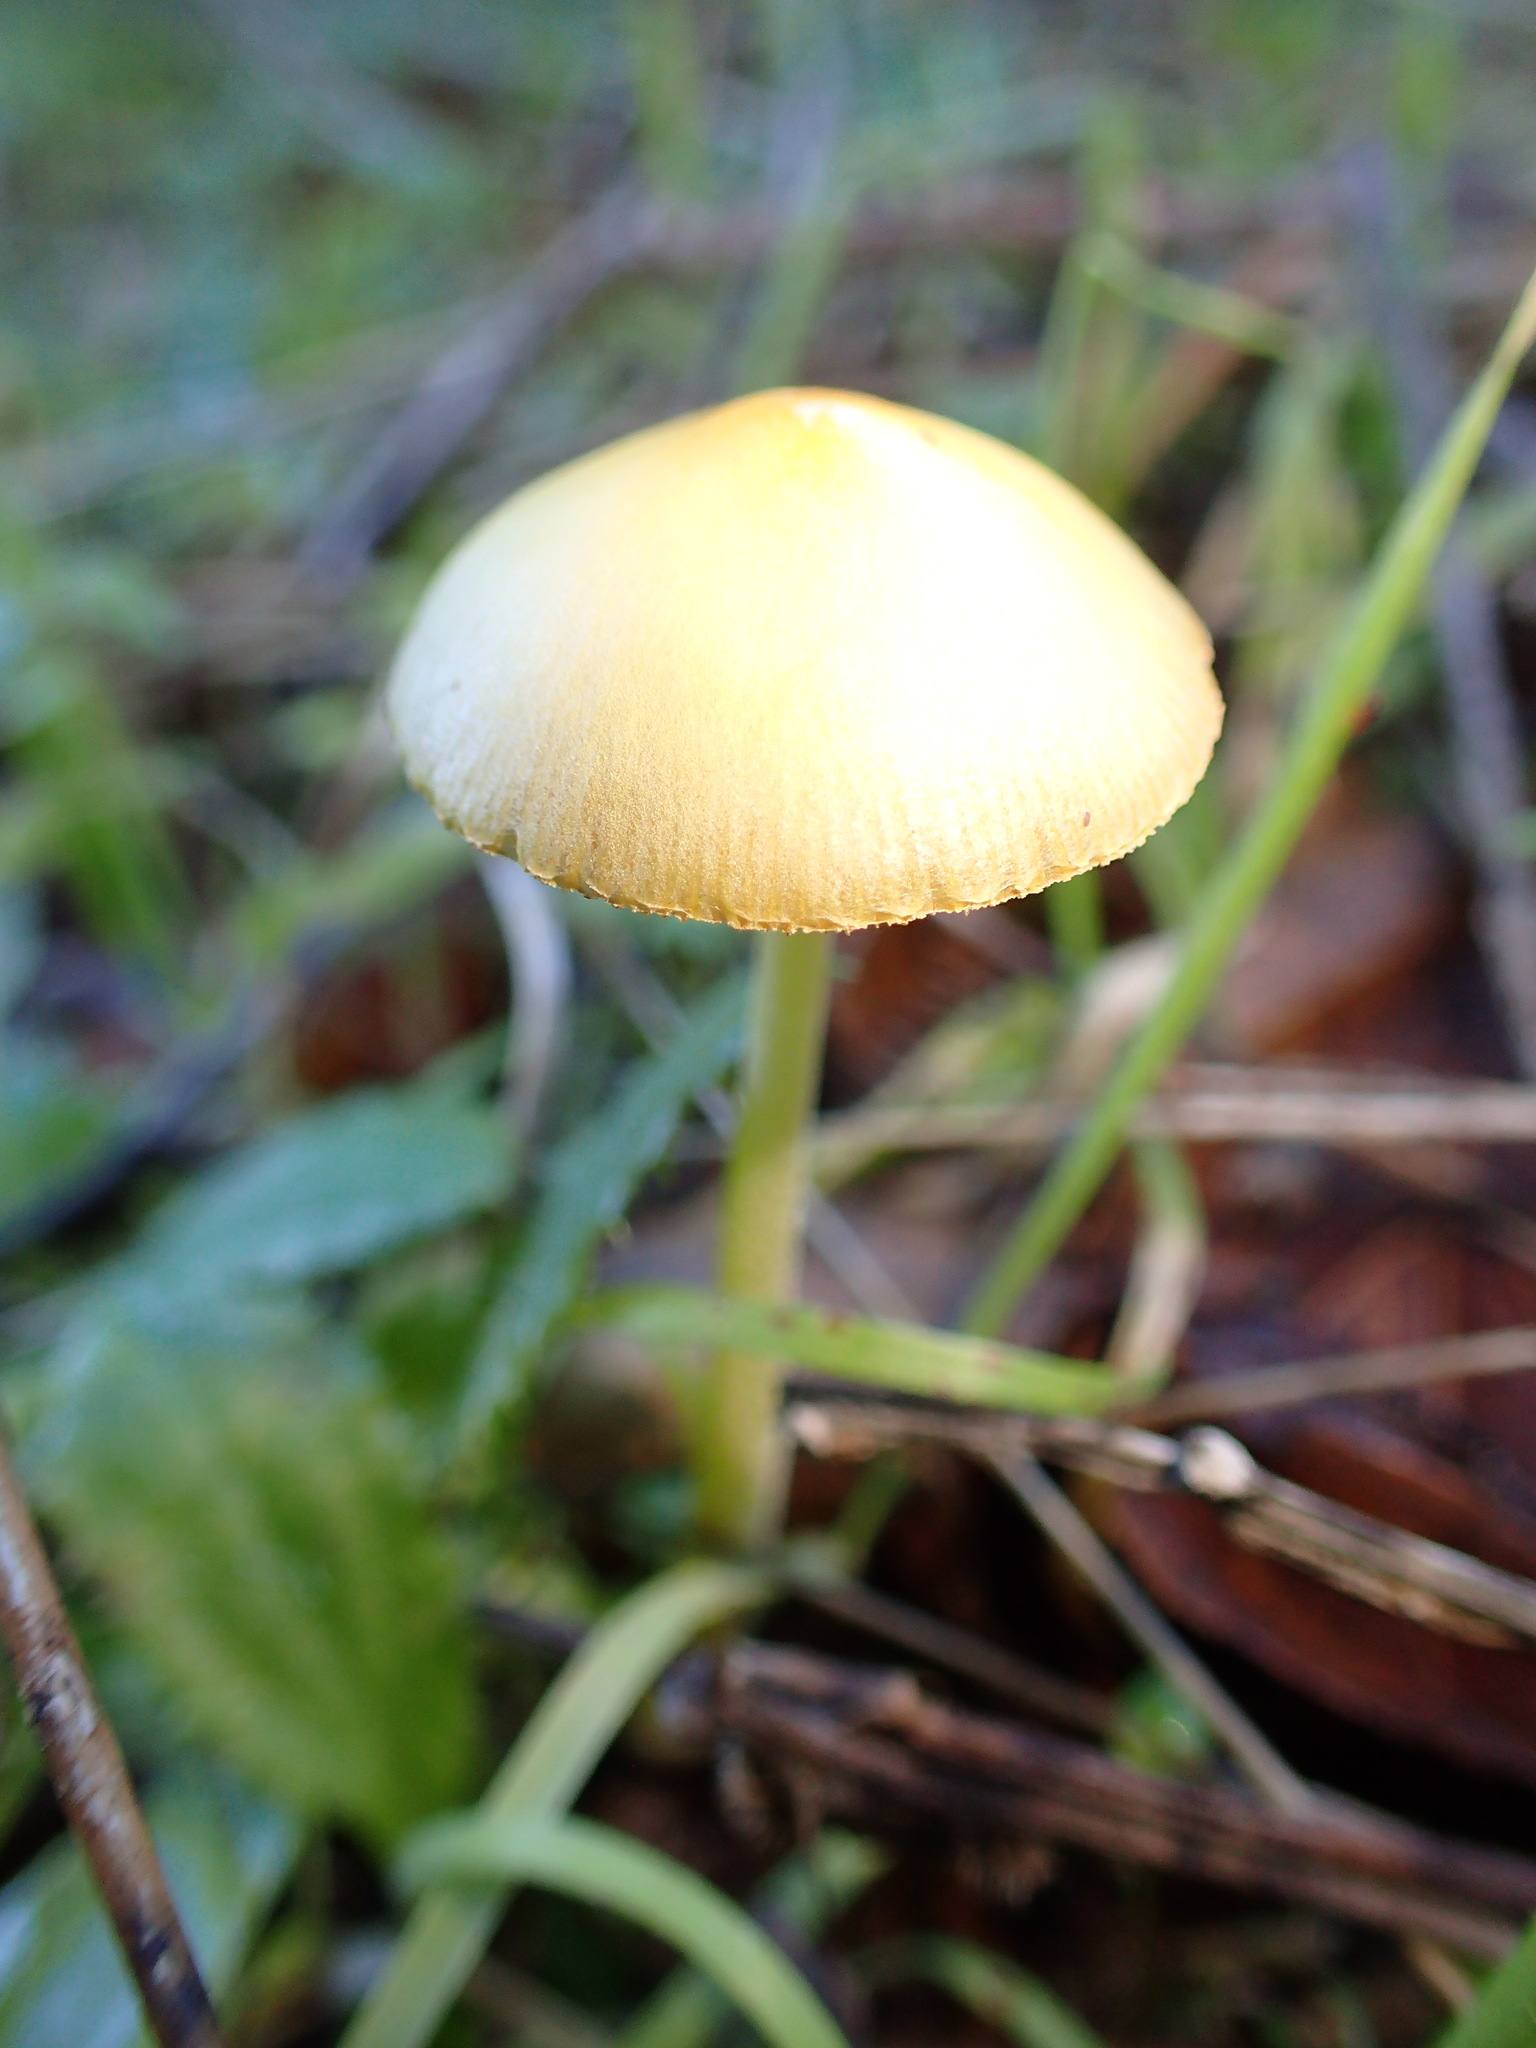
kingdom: Fungi
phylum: Basidiomycota
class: Agaricomycetes
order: Agaricales
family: Bolbitiaceae
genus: Bolbitius
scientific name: Bolbitius titubans
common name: Yellow fieldcap
